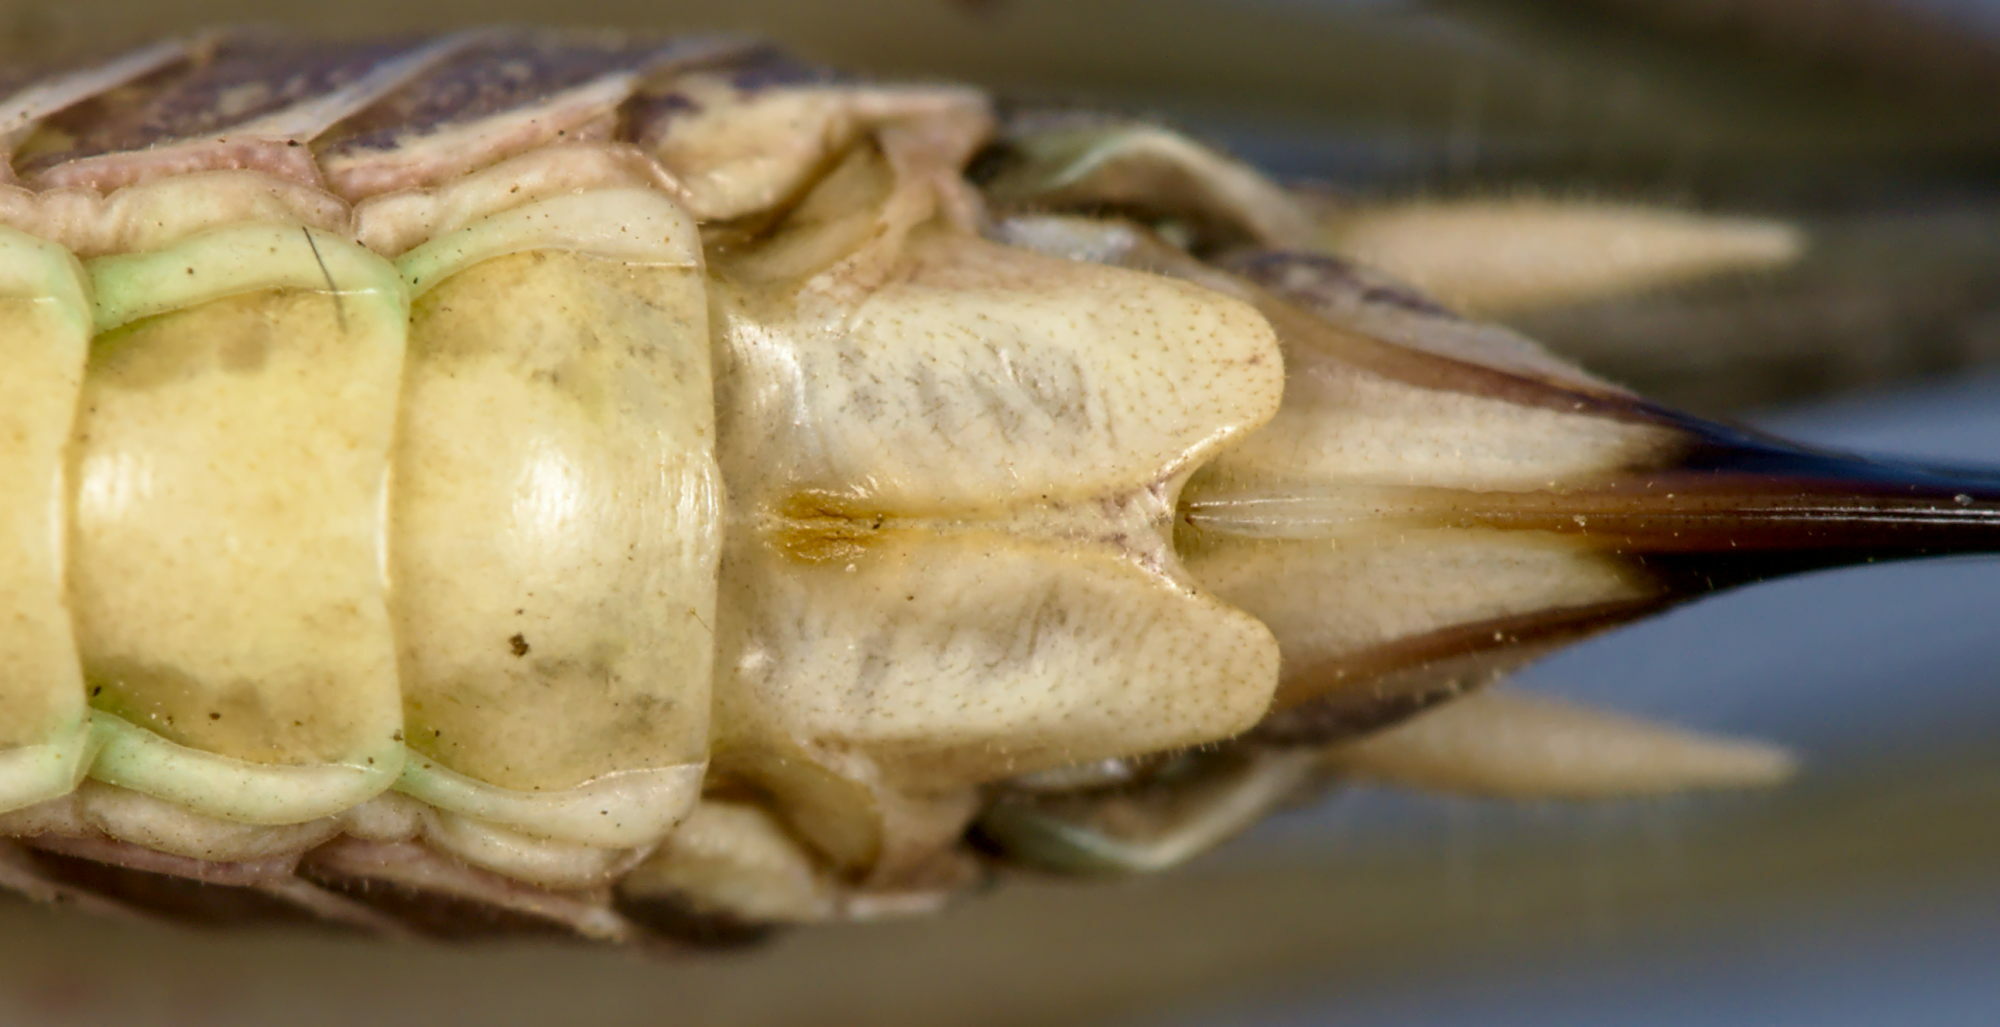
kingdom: Animalia
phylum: Arthropoda
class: Insecta
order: Orthoptera
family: Tettigoniidae
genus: Platycleis
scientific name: Platycleis grisea
